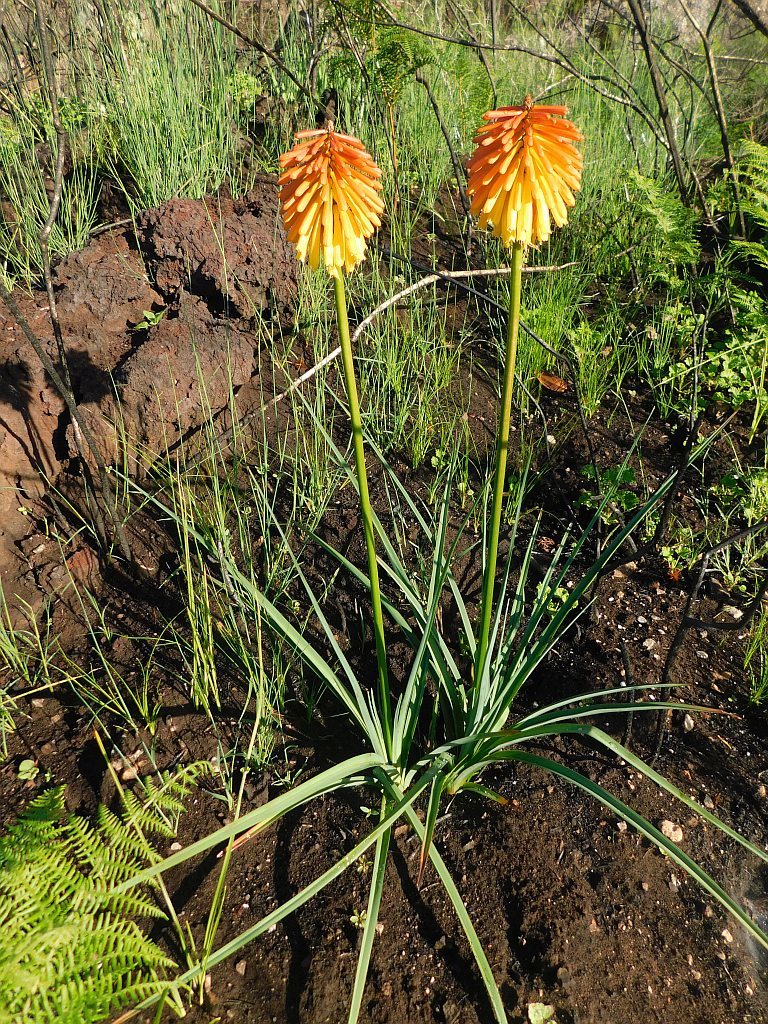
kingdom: Plantae
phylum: Tracheophyta
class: Liliopsida
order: Asparagales
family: Asphodelaceae
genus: Kniphofia
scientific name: Kniphofia uvaria
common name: Red-hot-poker
